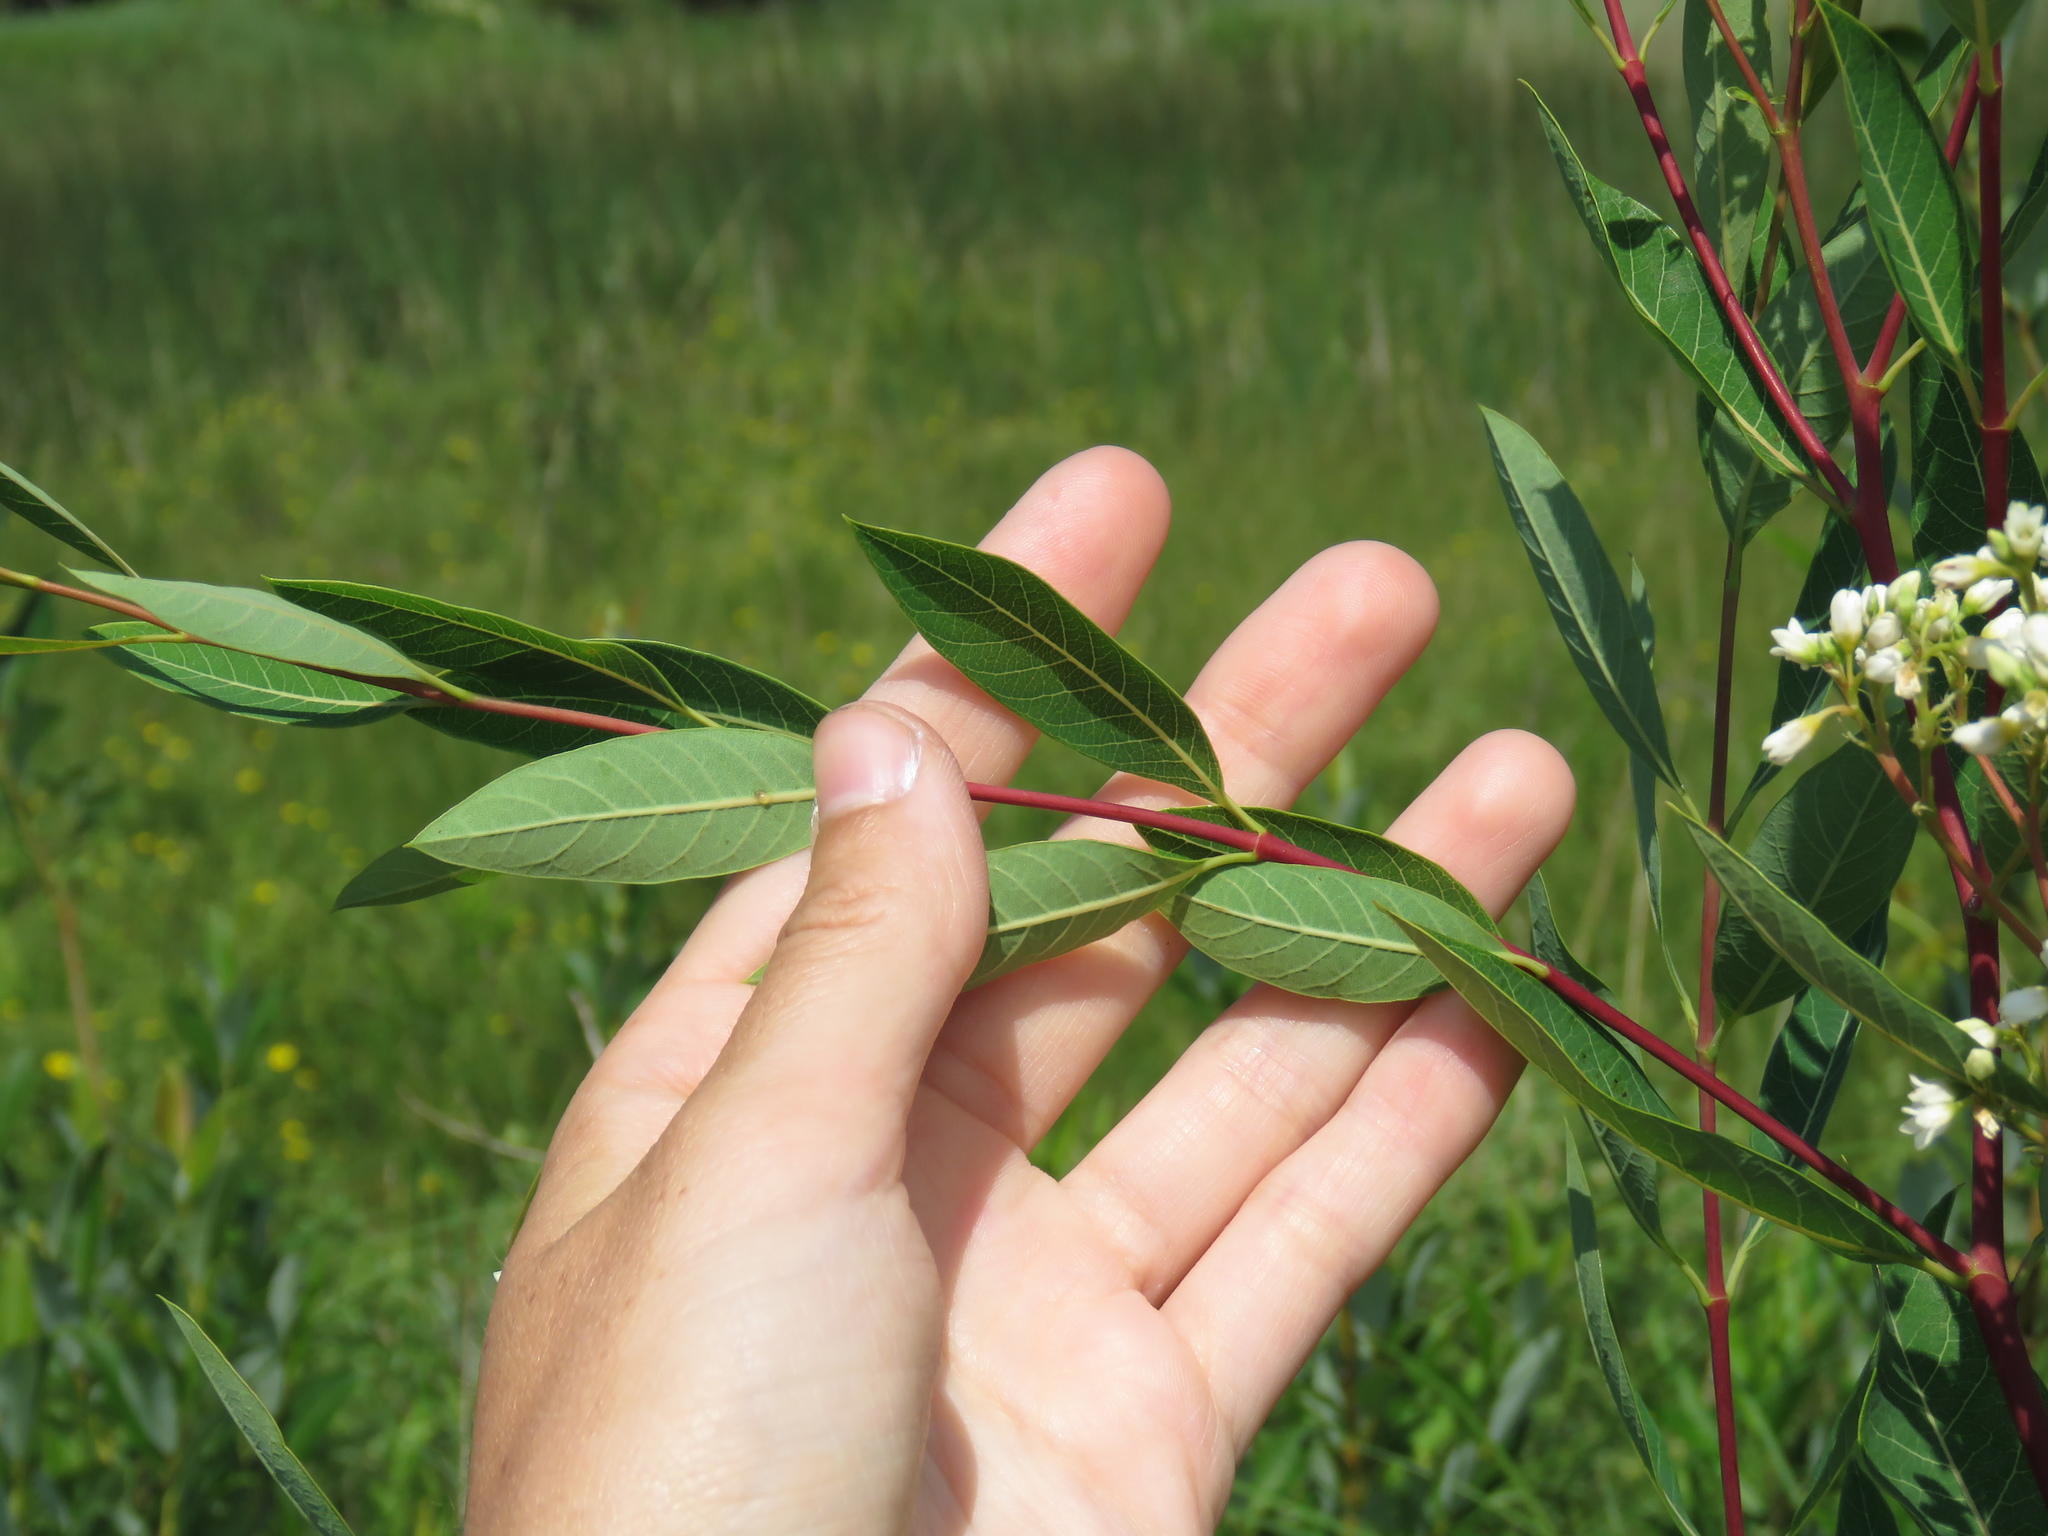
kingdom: Plantae
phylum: Tracheophyta
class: Magnoliopsida
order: Gentianales
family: Apocynaceae
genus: Apocynum
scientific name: Apocynum cannabinum
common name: Hemp dogbane
